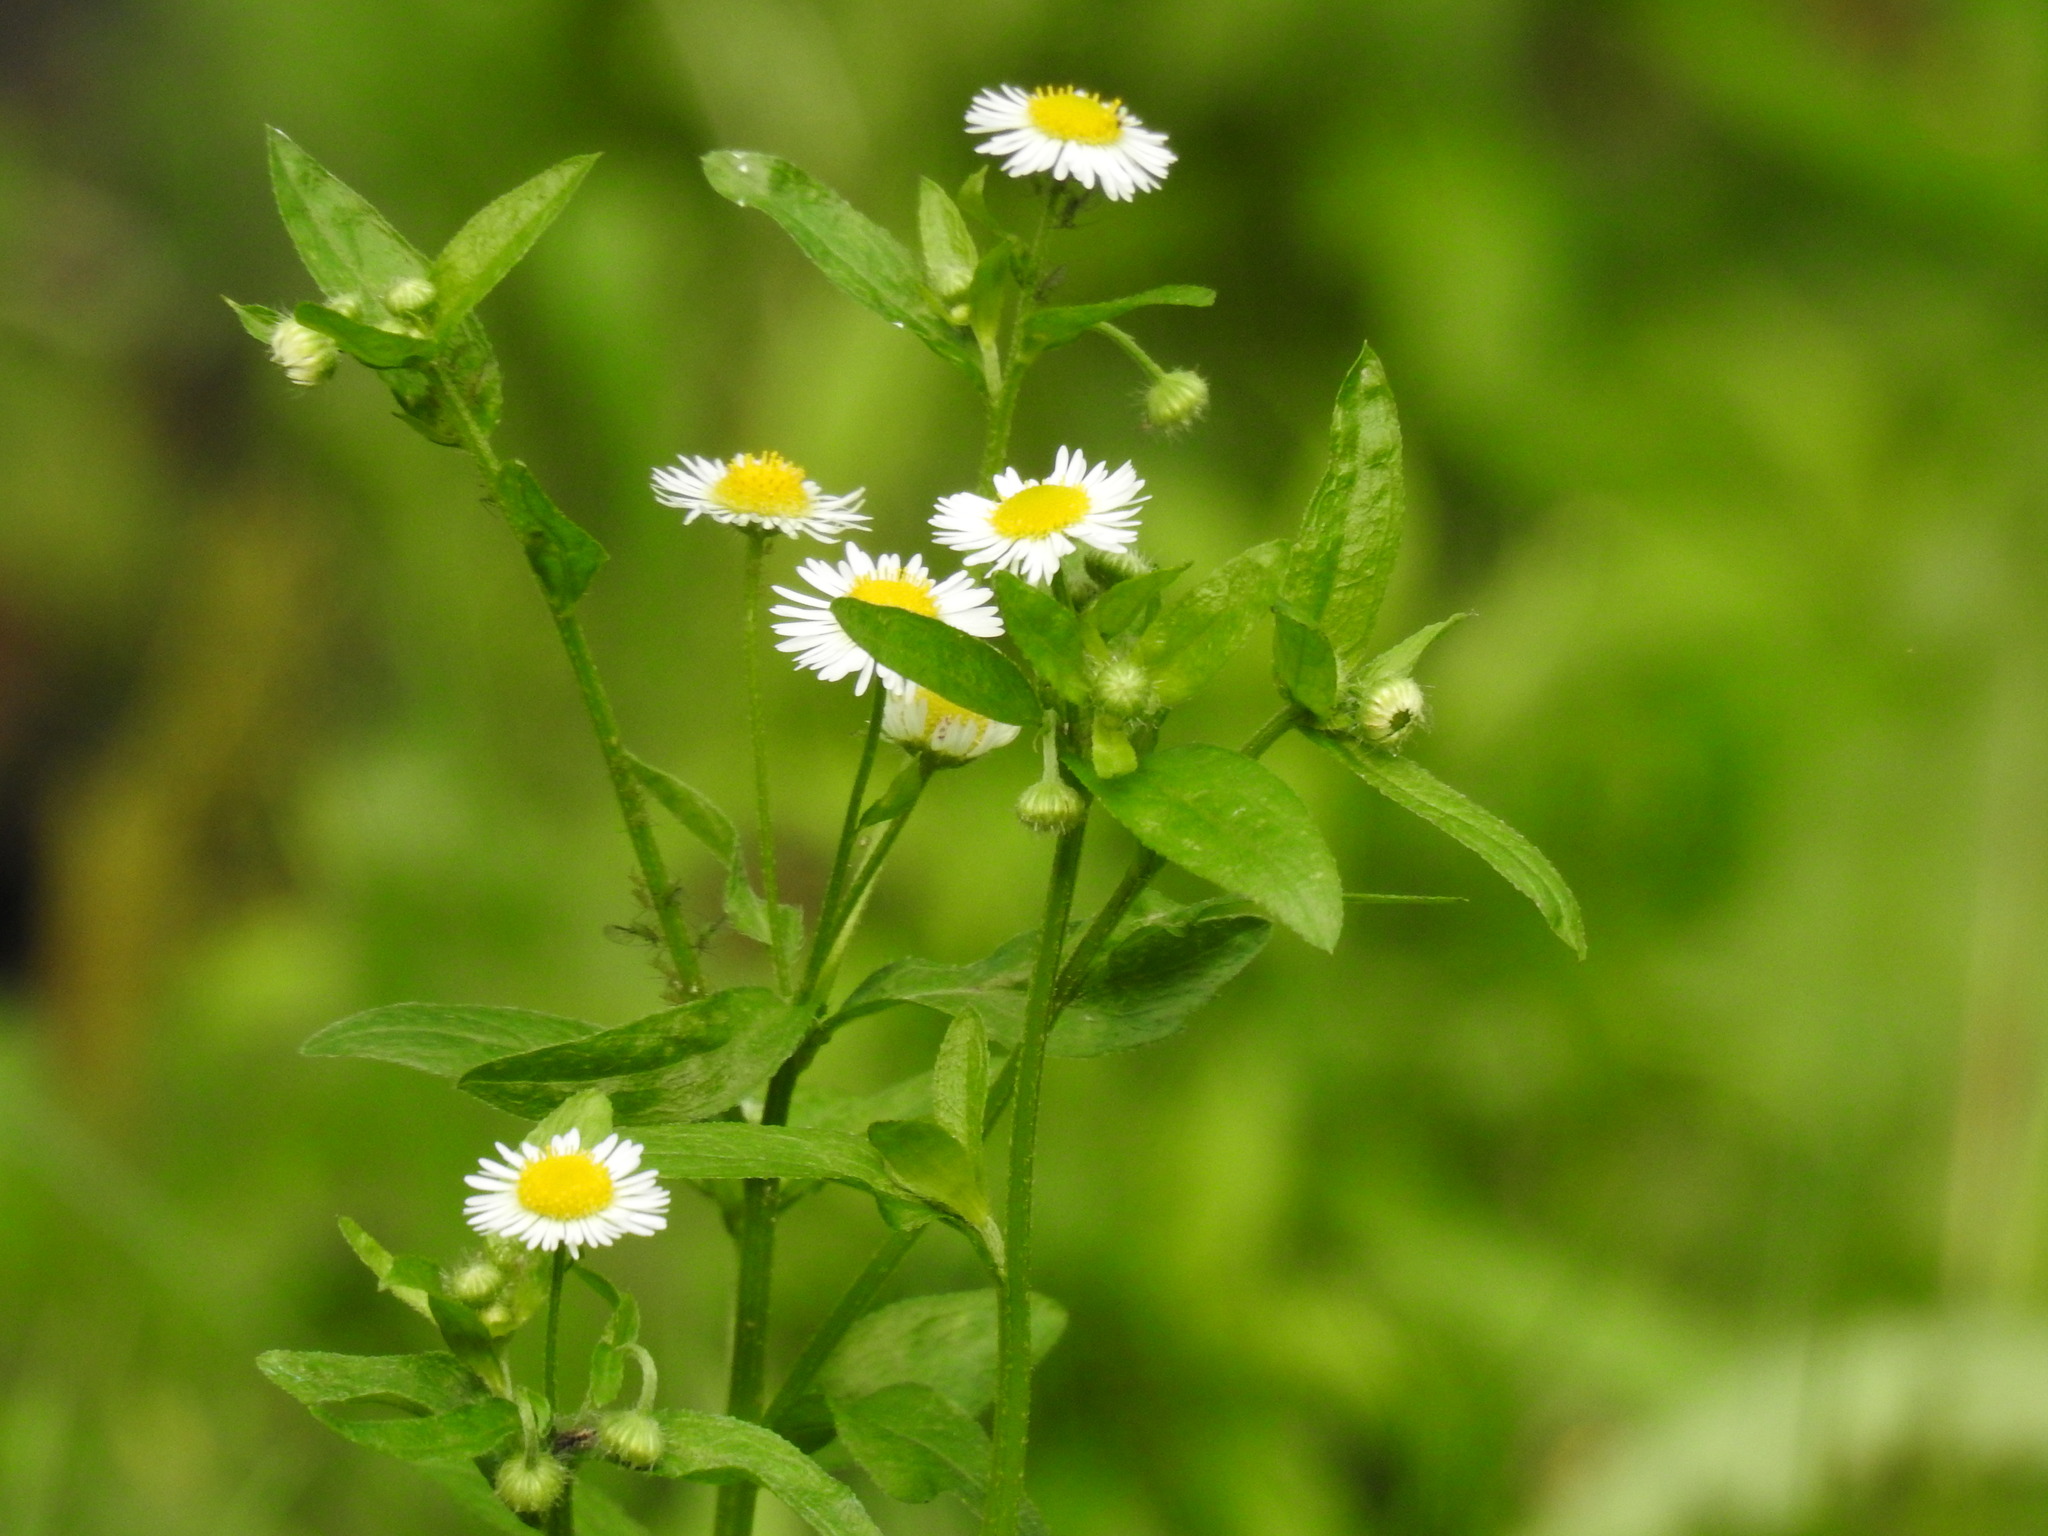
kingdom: Plantae
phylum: Tracheophyta
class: Magnoliopsida
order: Asterales
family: Asteraceae
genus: Erigeron
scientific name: Erigeron strigosus
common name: Common eastern fleabane
